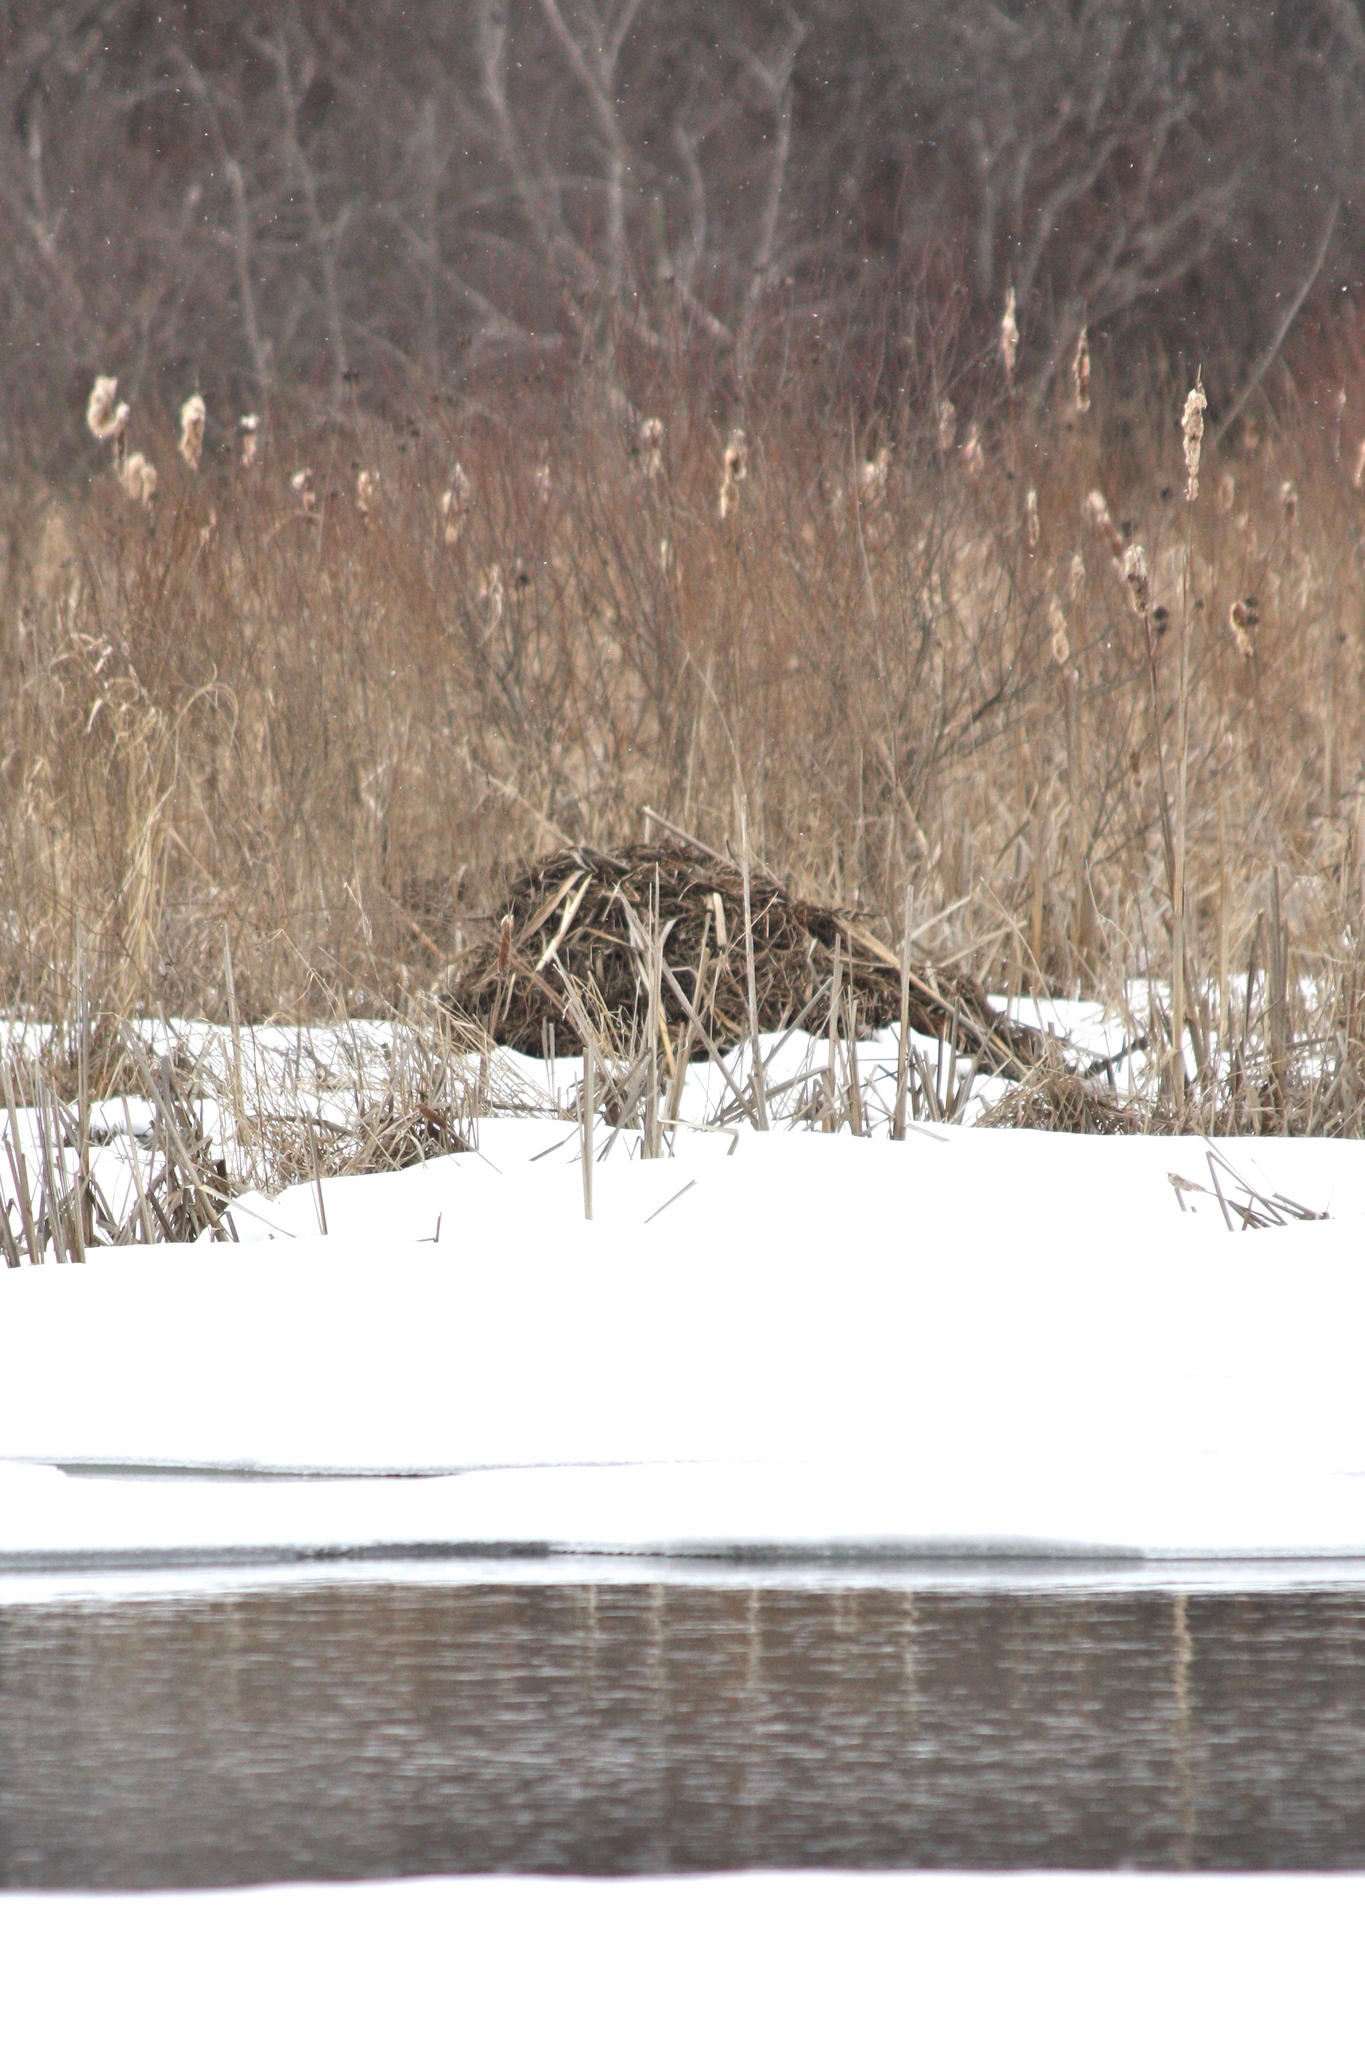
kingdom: Animalia
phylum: Chordata
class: Mammalia
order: Rodentia
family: Cricetidae
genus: Ondatra
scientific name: Ondatra zibethicus
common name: Muskrat
